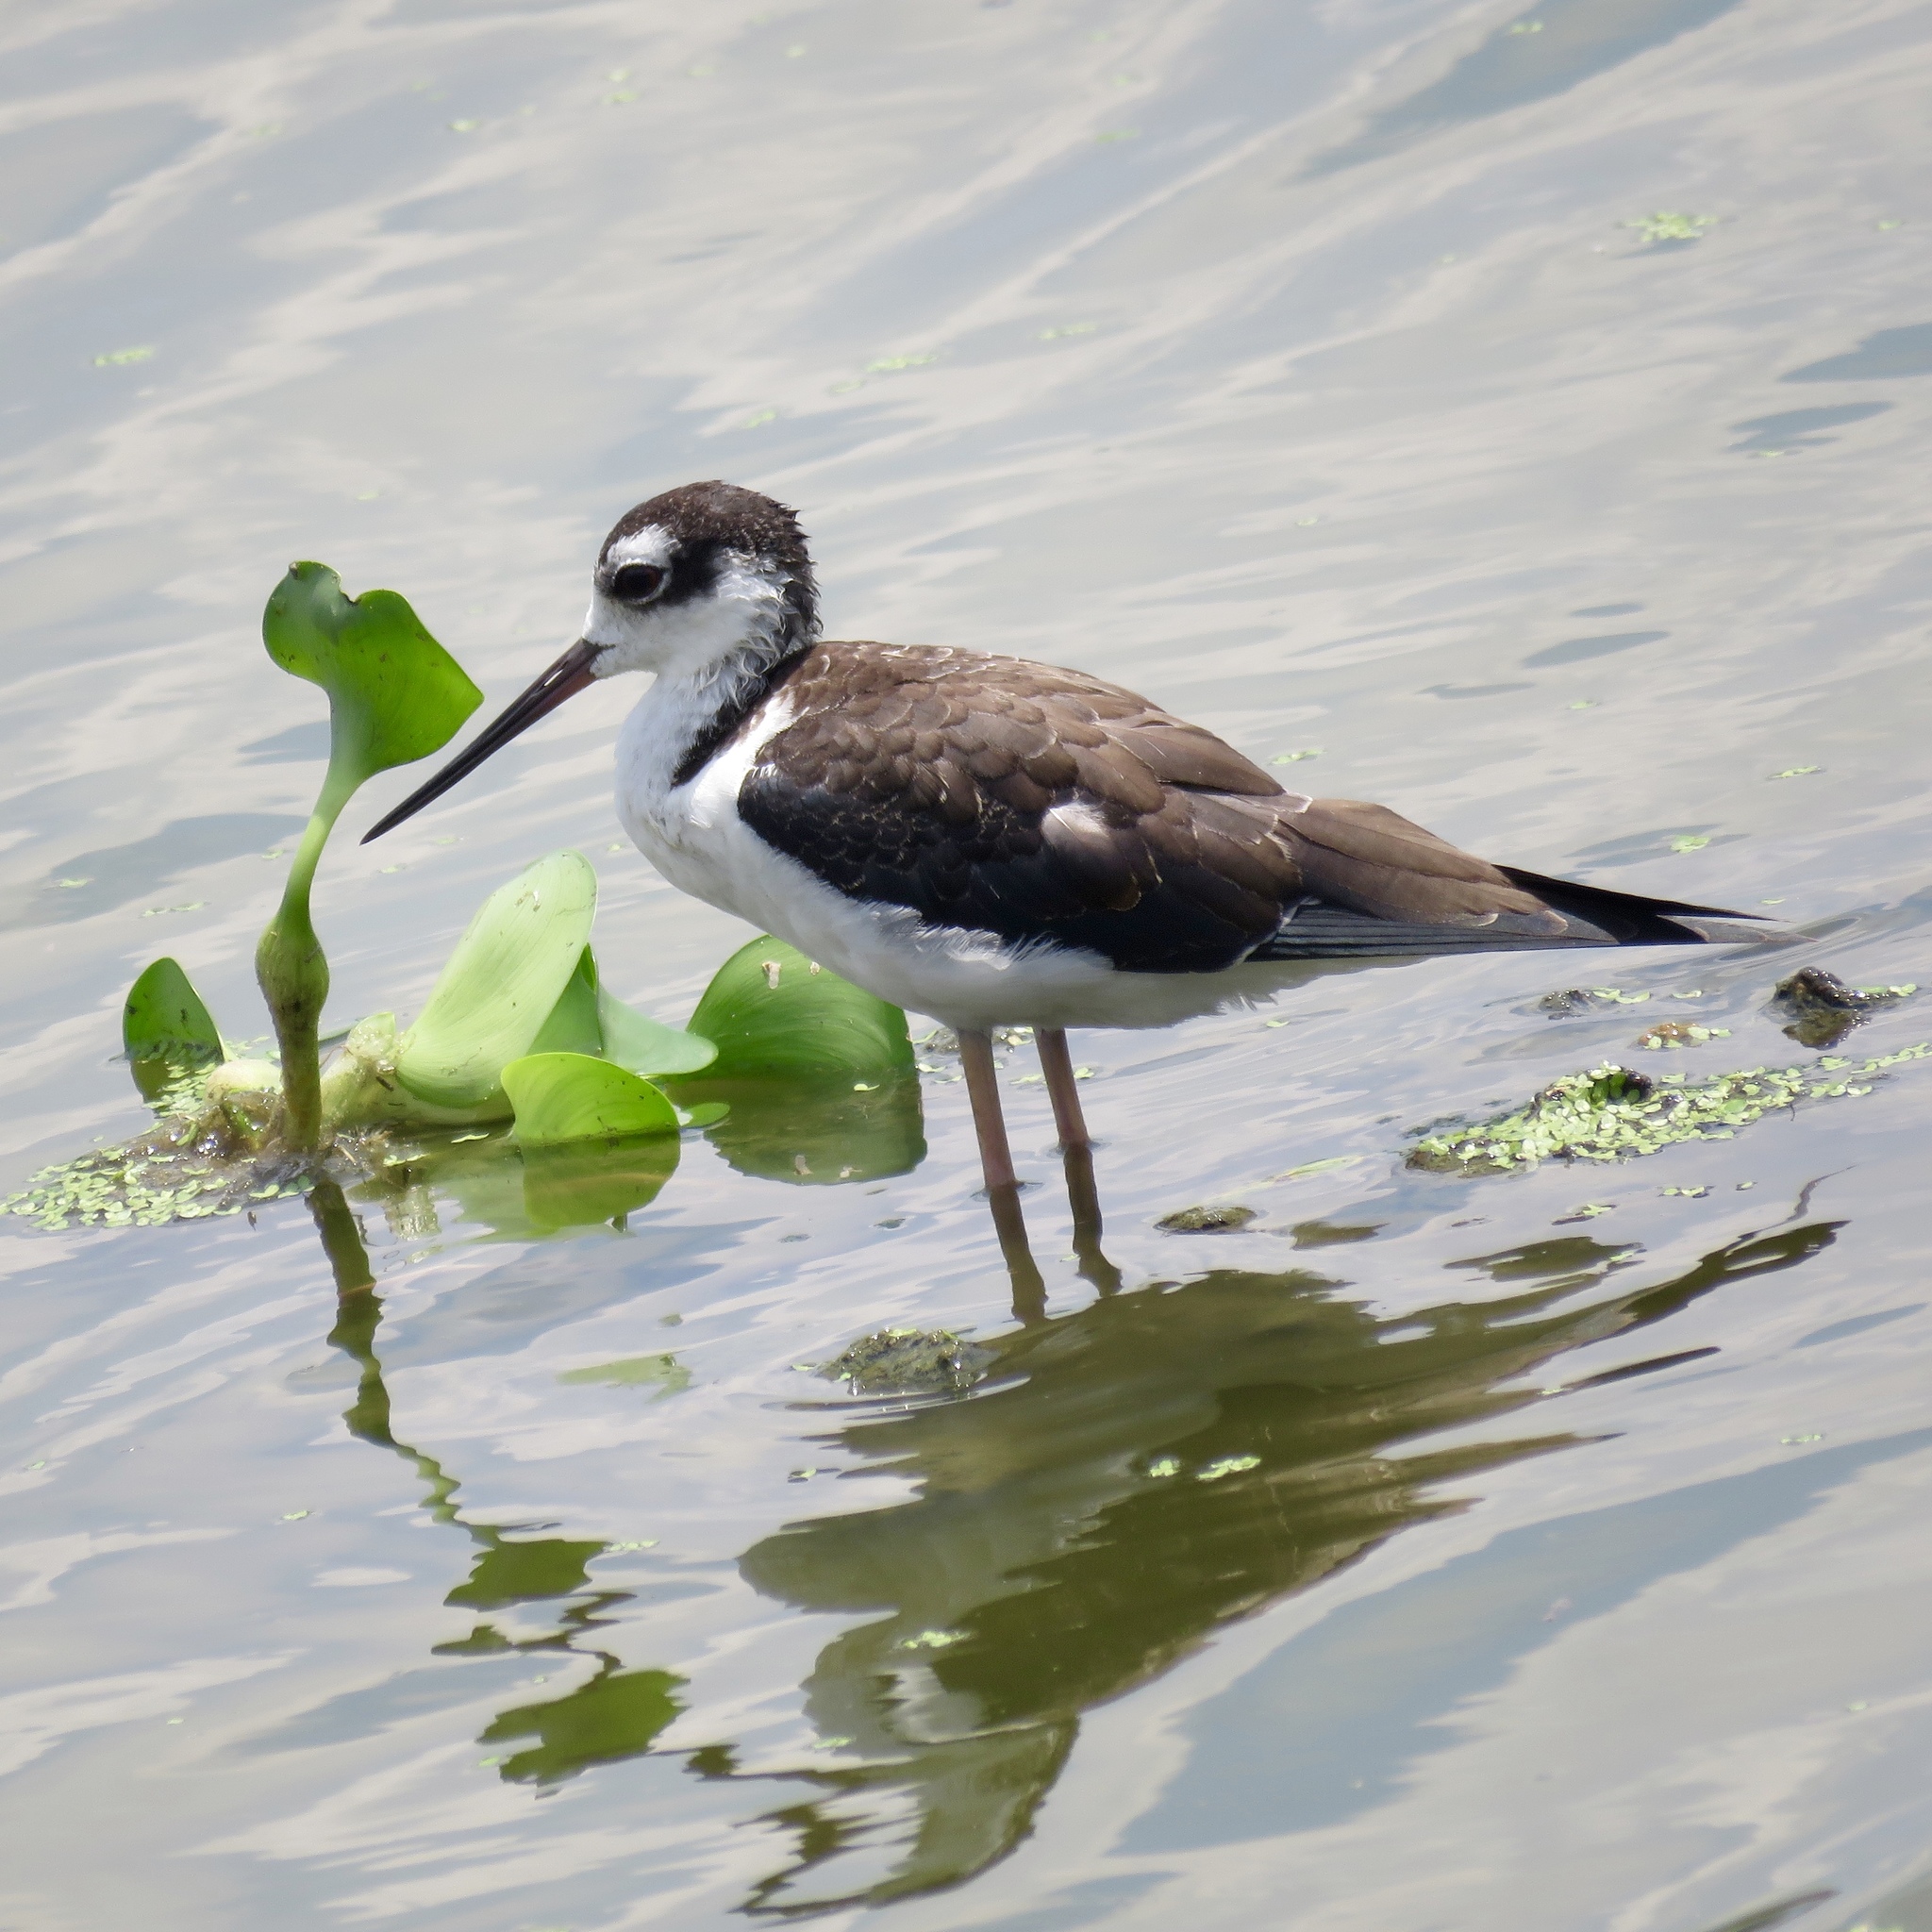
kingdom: Animalia
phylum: Chordata
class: Aves
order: Charadriiformes
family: Recurvirostridae
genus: Himantopus
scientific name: Himantopus mexicanus
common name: Black-necked stilt
